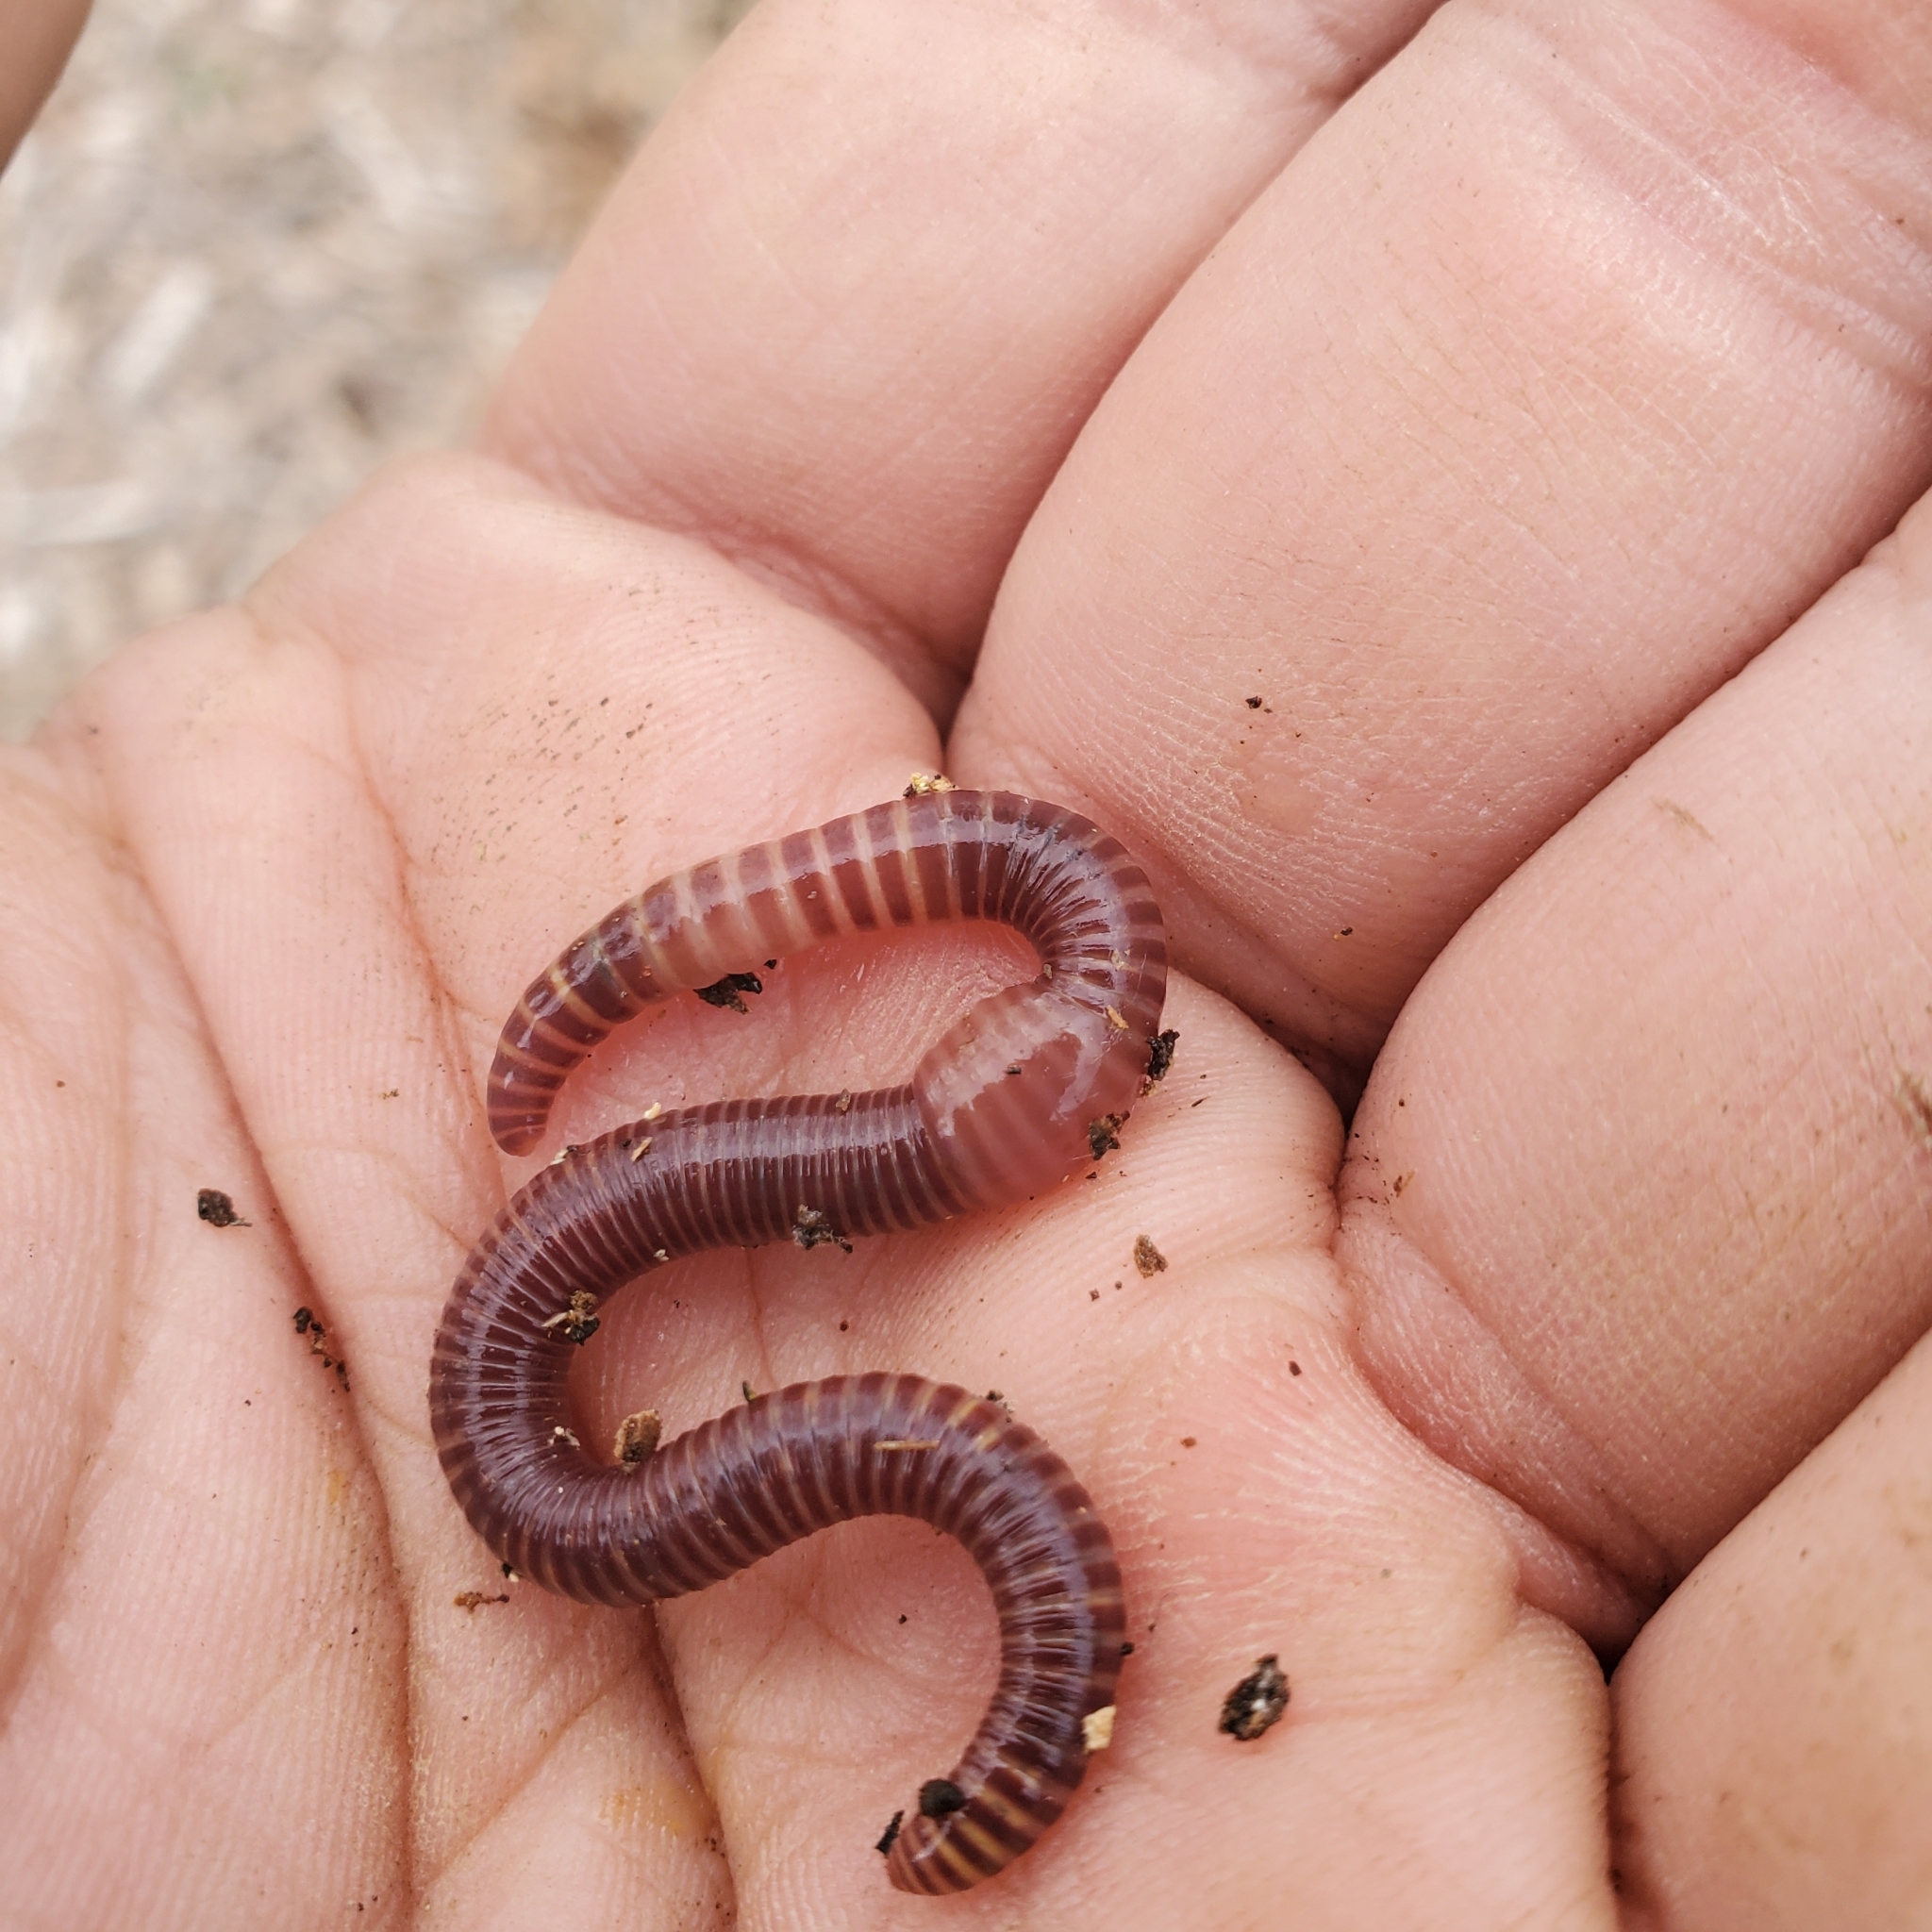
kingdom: Animalia
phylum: Annelida
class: Clitellata
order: Crassiclitellata
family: Lumbricidae
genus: Eisenia
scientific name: Eisenia fetida
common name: Red wiggler
